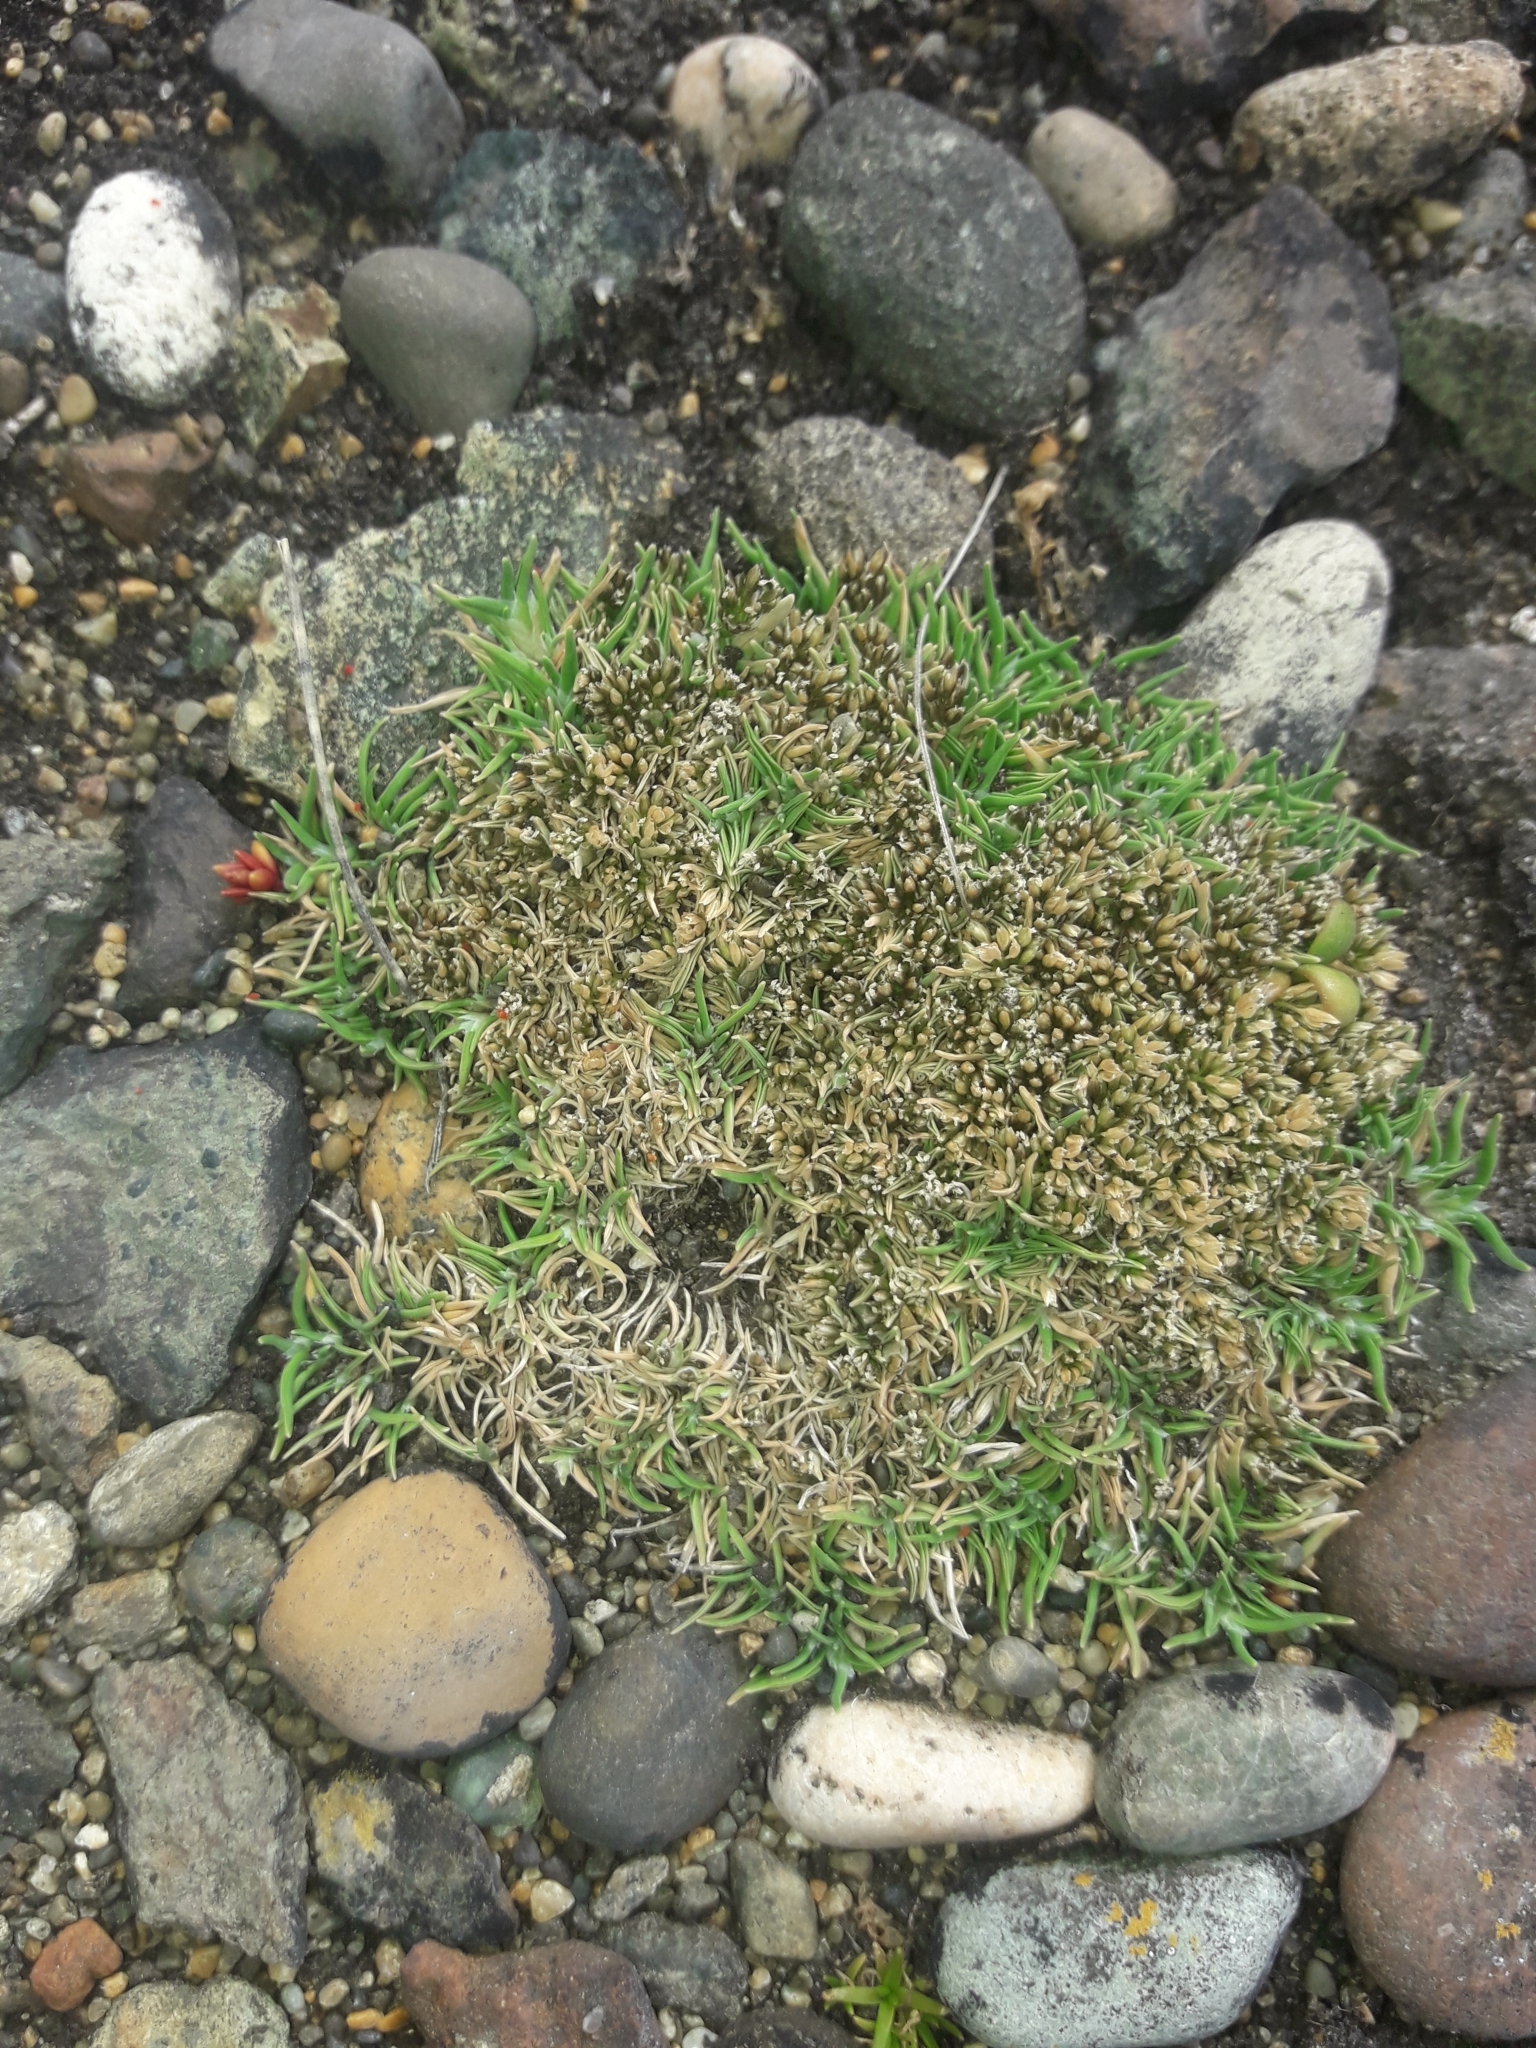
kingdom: Plantae
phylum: Tracheophyta
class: Liliopsida
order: Poales
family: Poaceae
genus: Agrostis
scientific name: Agrostis muscosa
